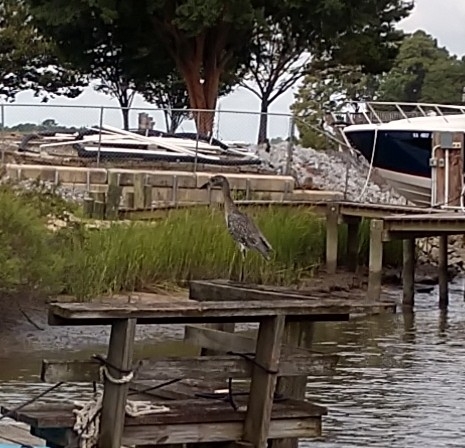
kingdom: Animalia
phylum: Chordata
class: Aves
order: Pelecaniformes
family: Ardeidae
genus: Nyctanassa
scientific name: Nyctanassa violacea
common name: Yellow-crowned night heron
